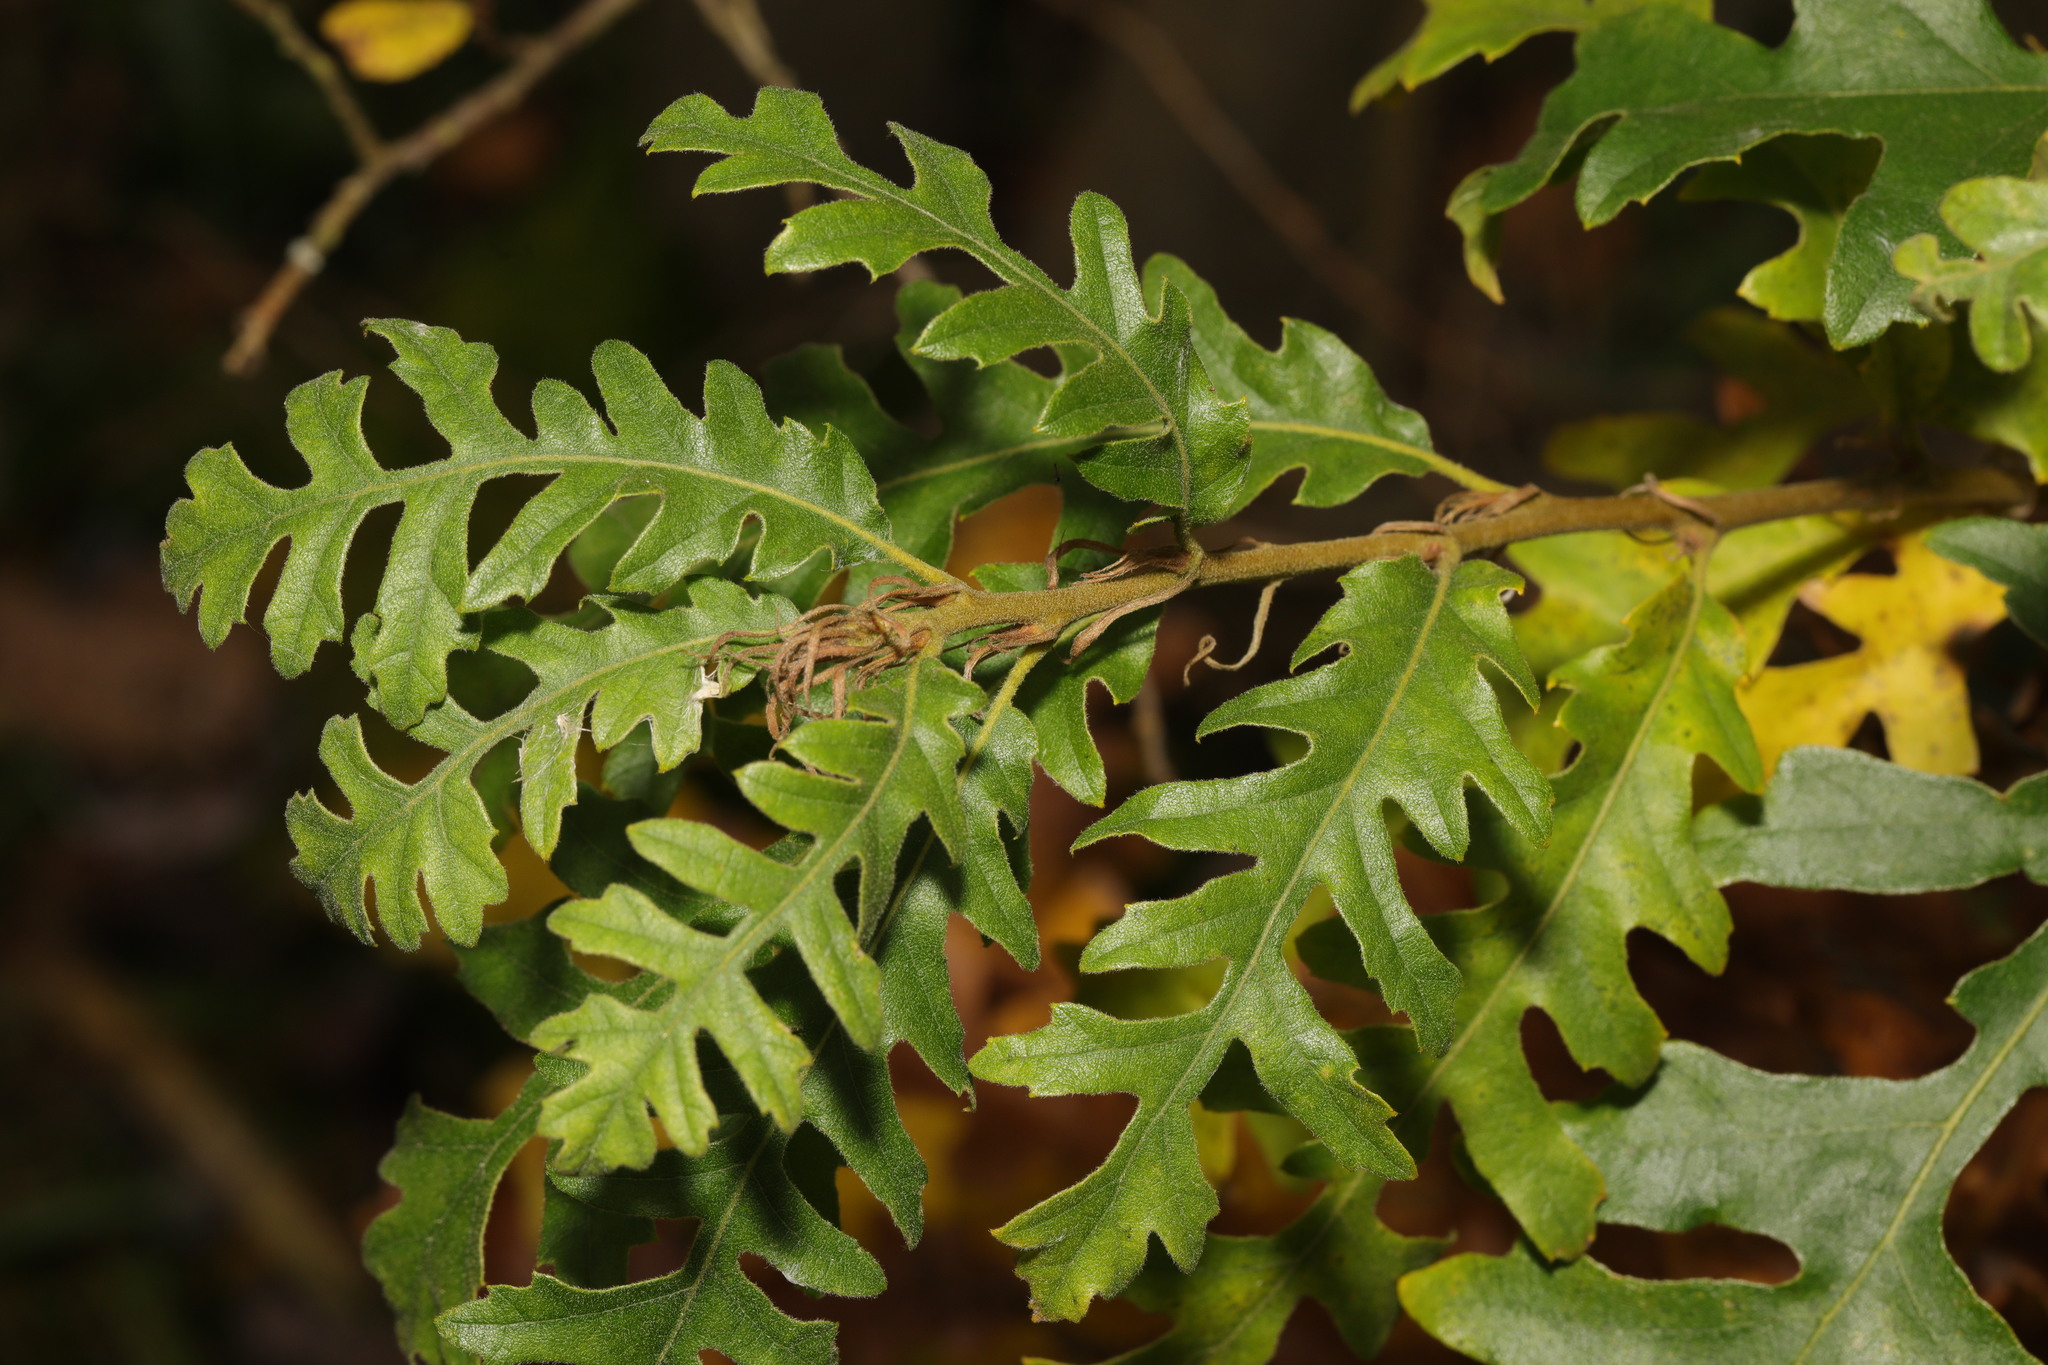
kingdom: Plantae
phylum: Tracheophyta
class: Magnoliopsida
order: Fagales
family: Fagaceae
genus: Quercus
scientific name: Quercus cerris
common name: Turkey oak
